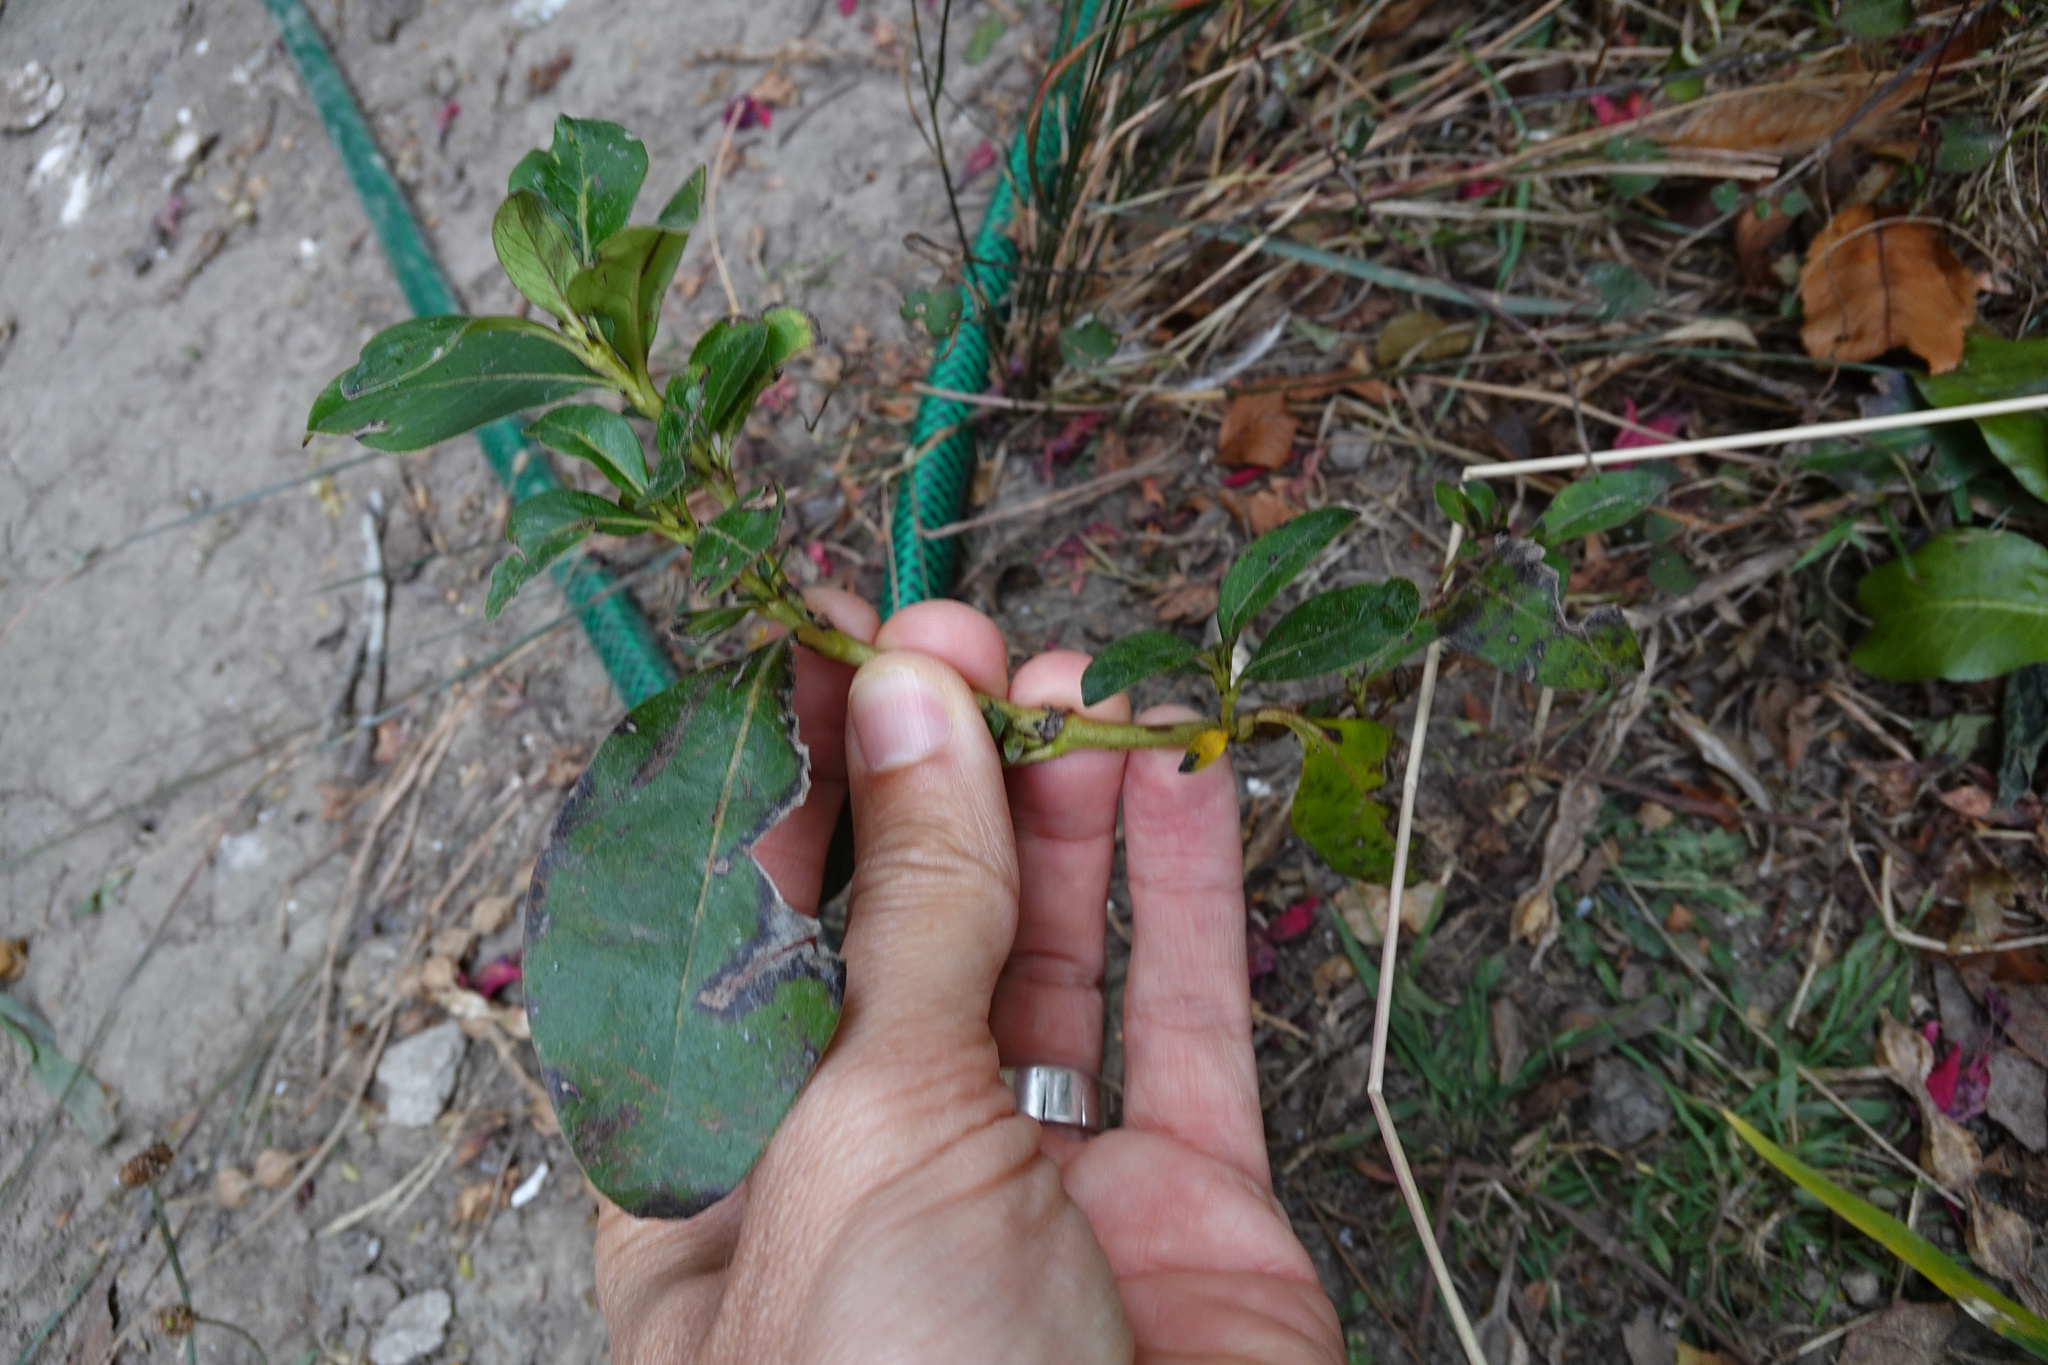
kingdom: Plantae
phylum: Tracheophyta
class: Magnoliopsida
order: Gentianales
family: Rubiaceae
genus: Coprosma
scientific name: Coprosma robusta
